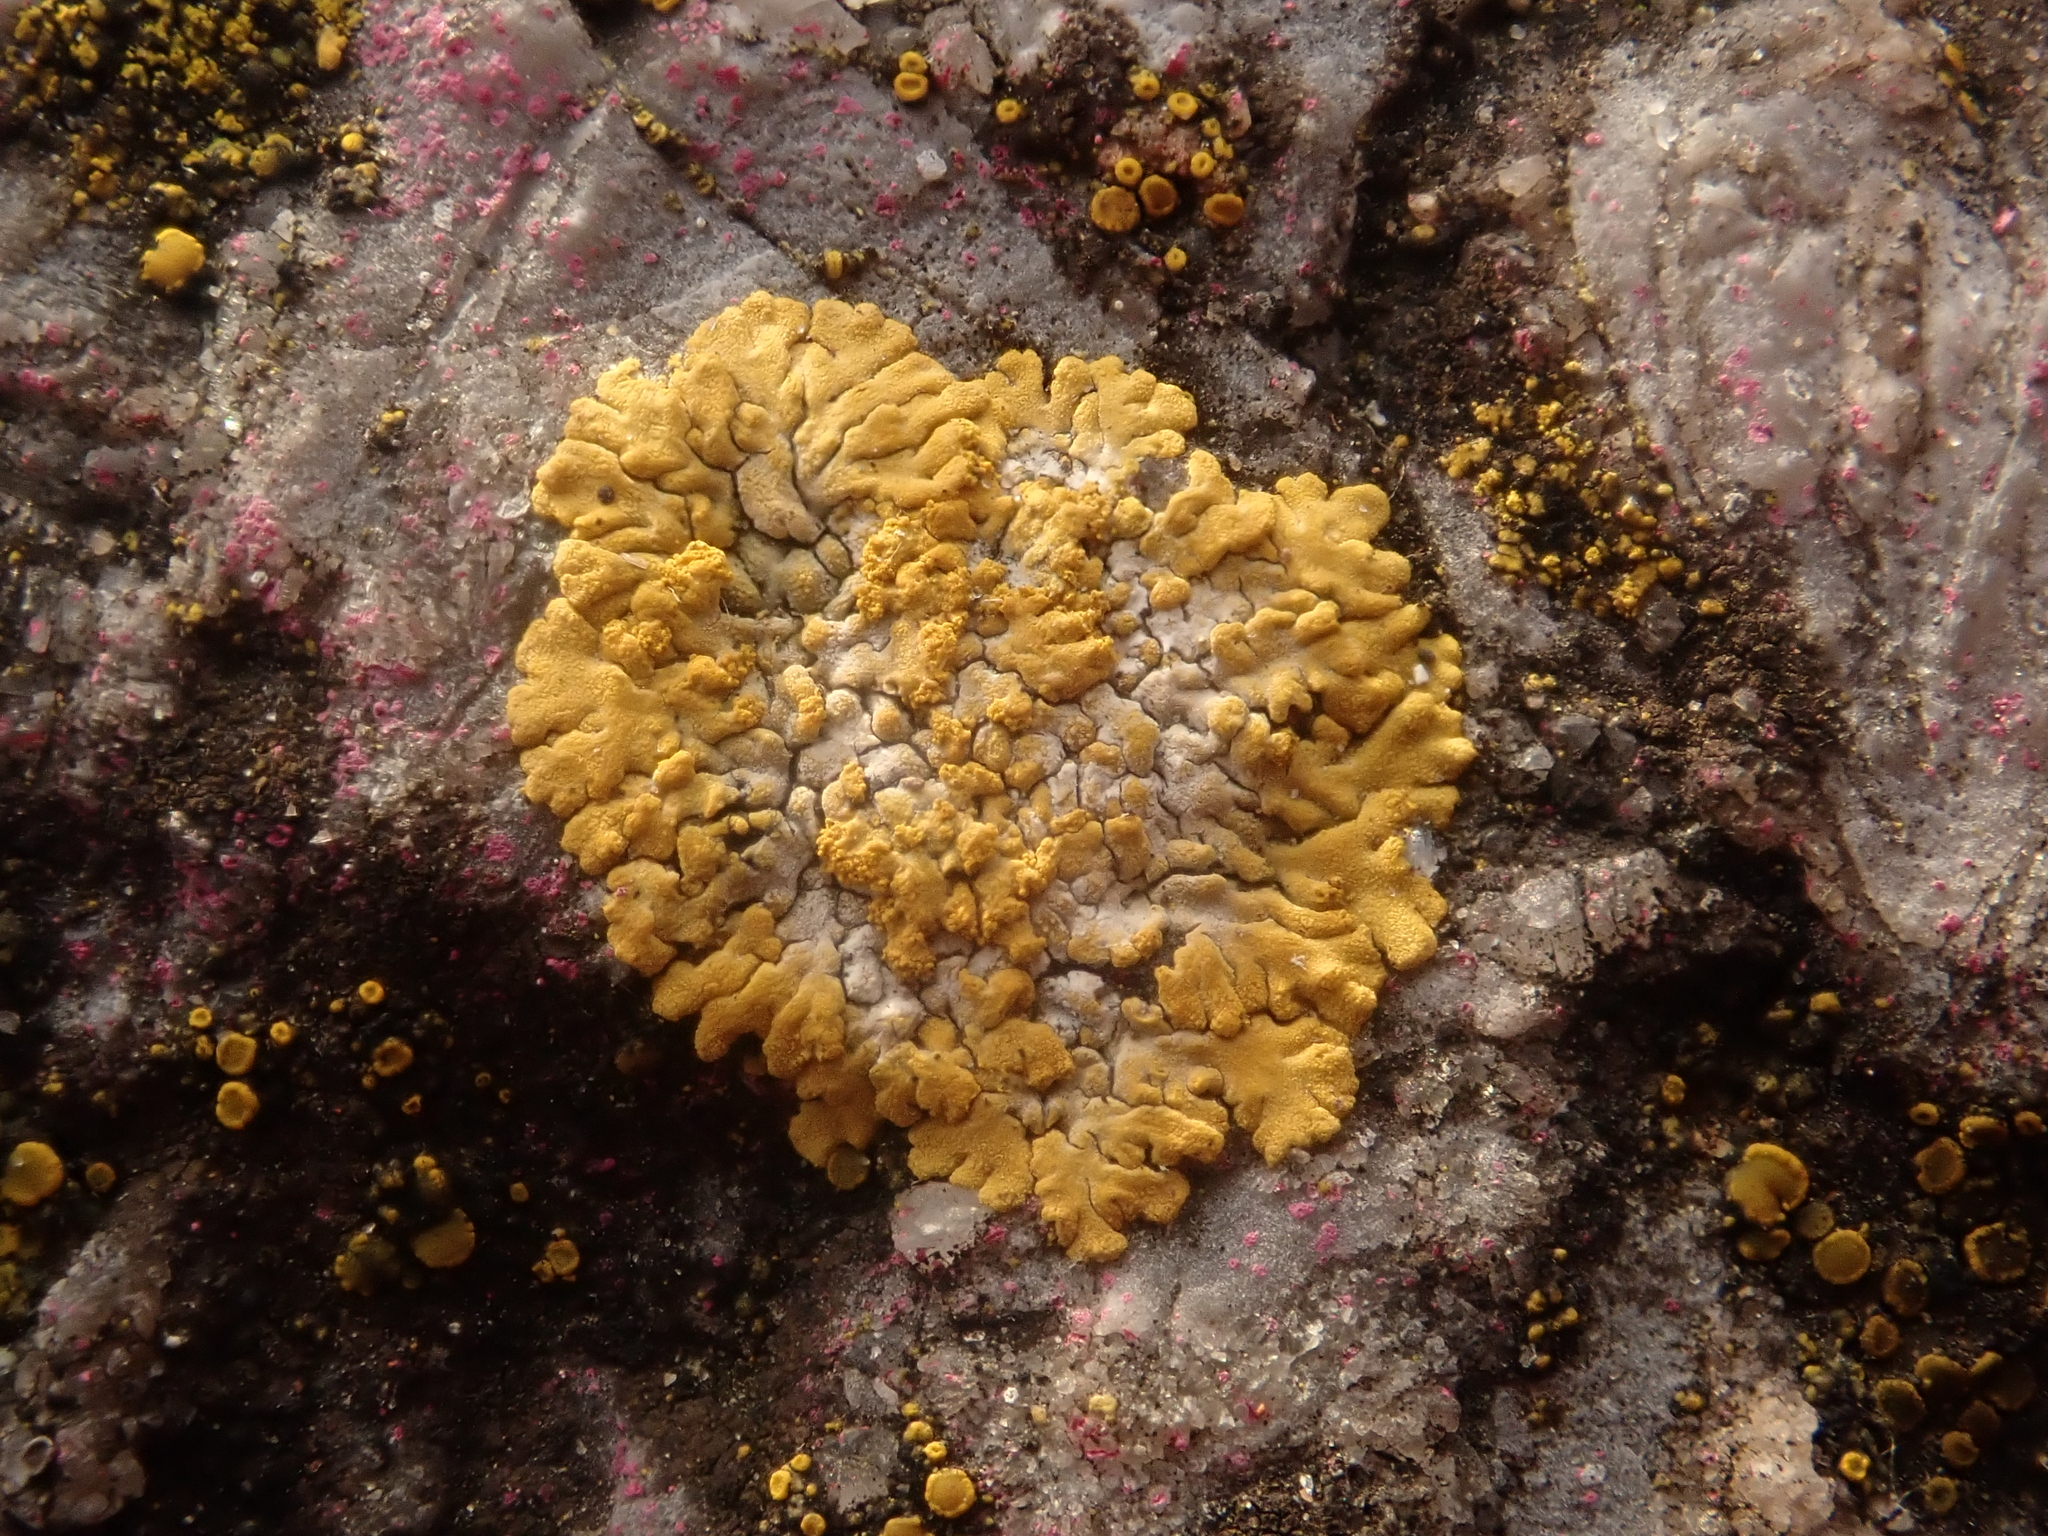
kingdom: Fungi
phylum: Ascomycota
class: Lecanoromycetes
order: Teloschistales
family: Teloschistaceae
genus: Calogaya
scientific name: Calogaya decipiens
